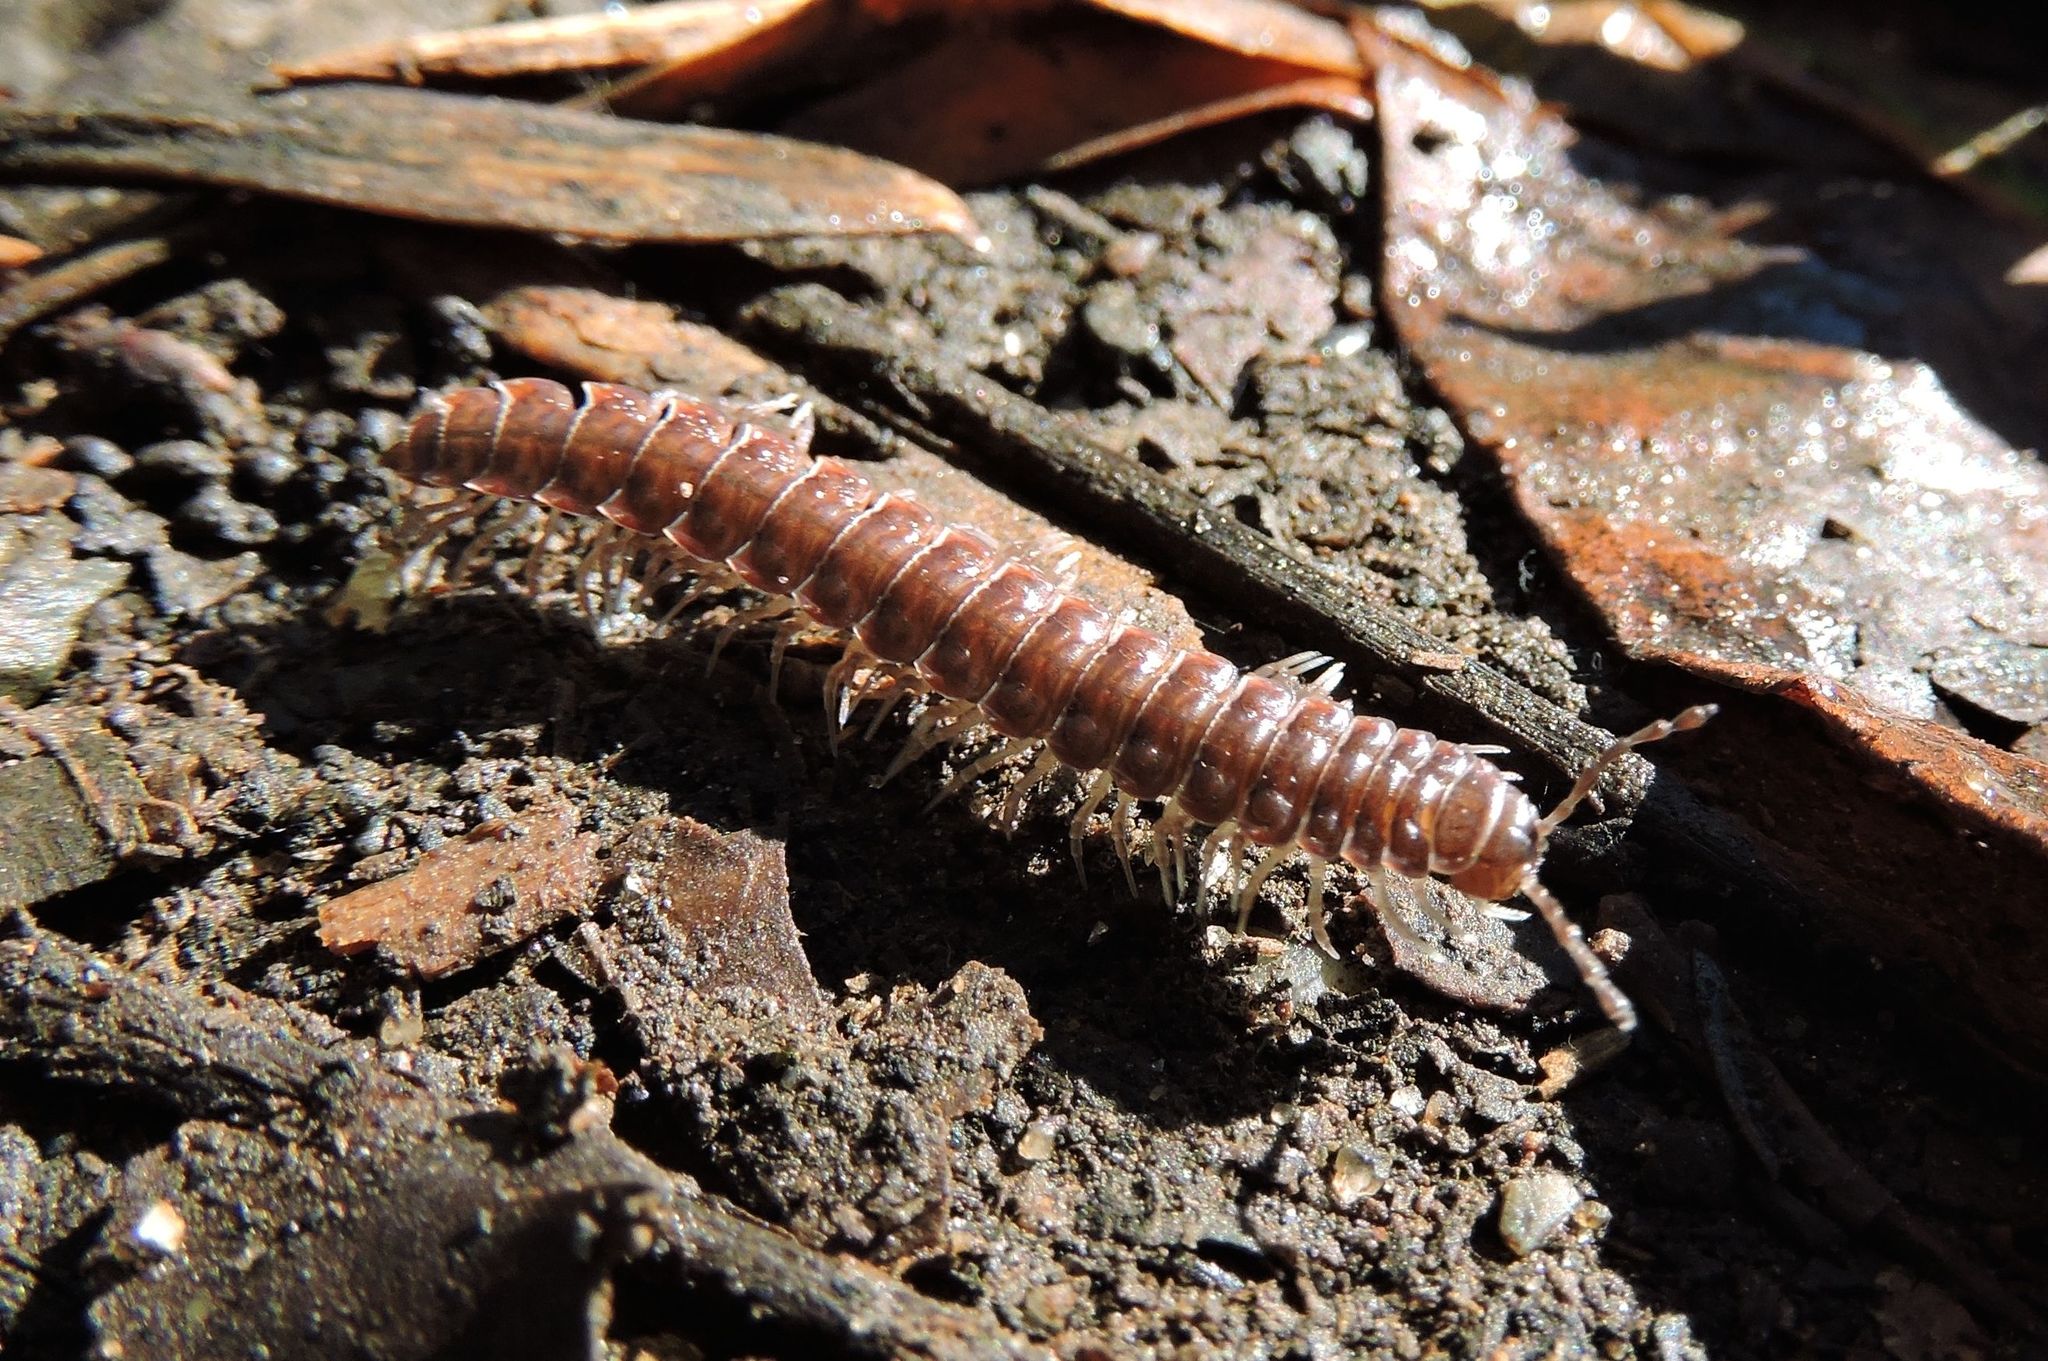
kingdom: Animalia
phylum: Arthropoda
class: Diplopoda
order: Polydesmida
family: Polydesmidae
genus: Pseudopolydesmus
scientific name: Pseudopolydesmus serratus
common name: Common pink flat-back millipede
